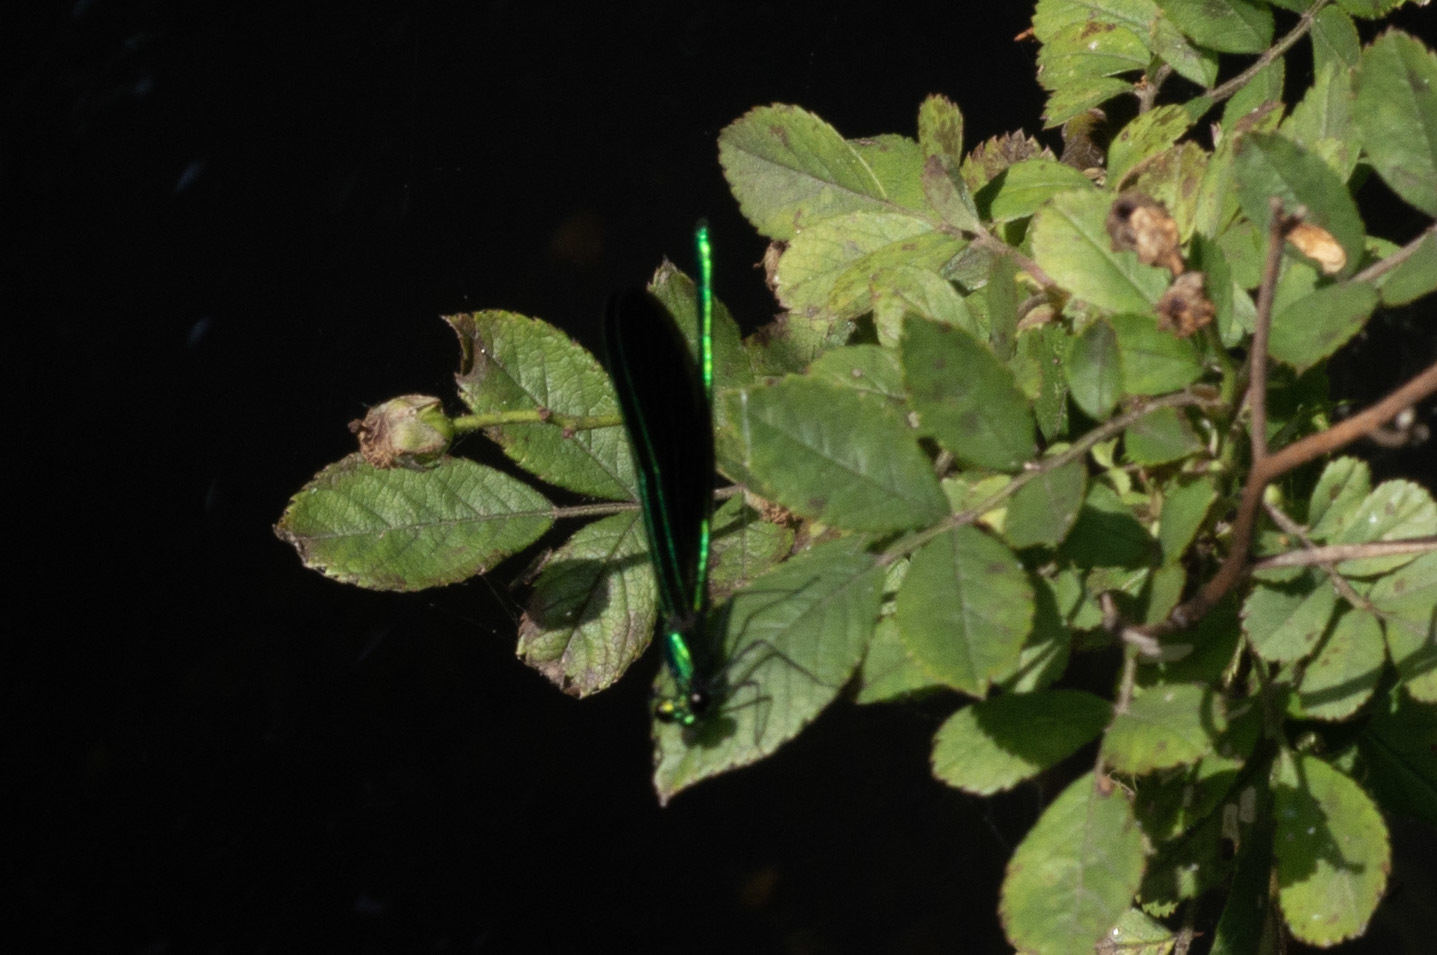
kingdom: Animalia
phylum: Arthropoda
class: Insecta
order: Odonata
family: Calopterygidae
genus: Calopteryx
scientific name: Calopteryx maculata
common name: Ebony jewelwing
